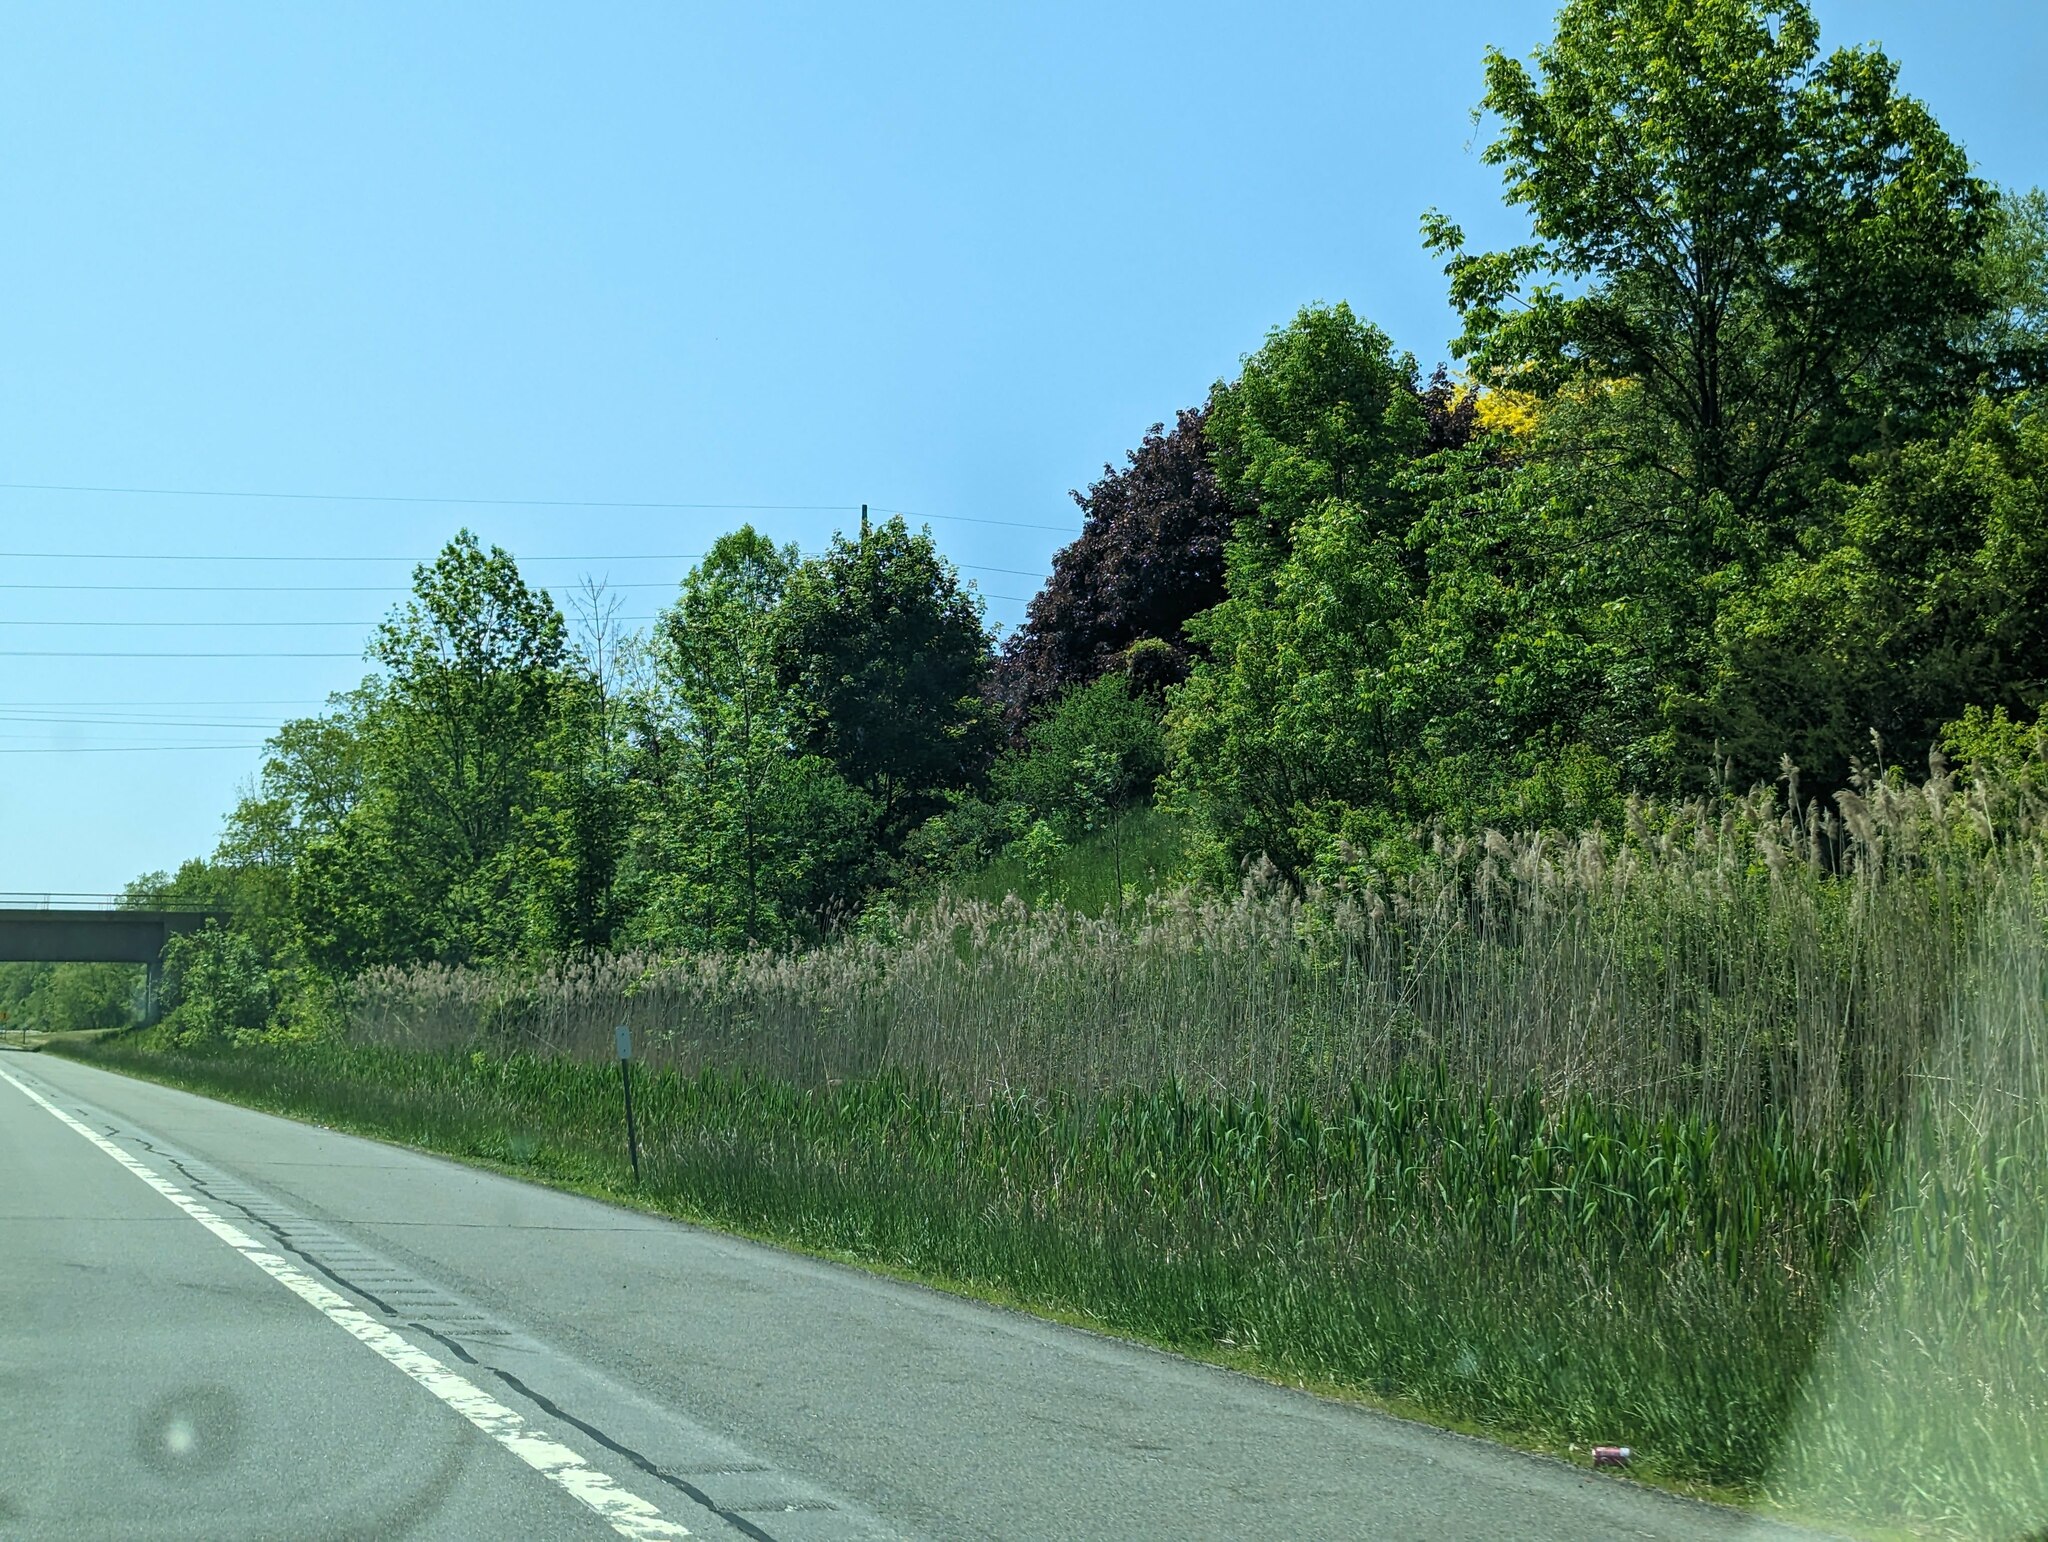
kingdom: Plantae
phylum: Tracheophyta
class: Liliopsida
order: Poales
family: Poaceae
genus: Phragmites
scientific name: Phragmites australis
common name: Common reed
